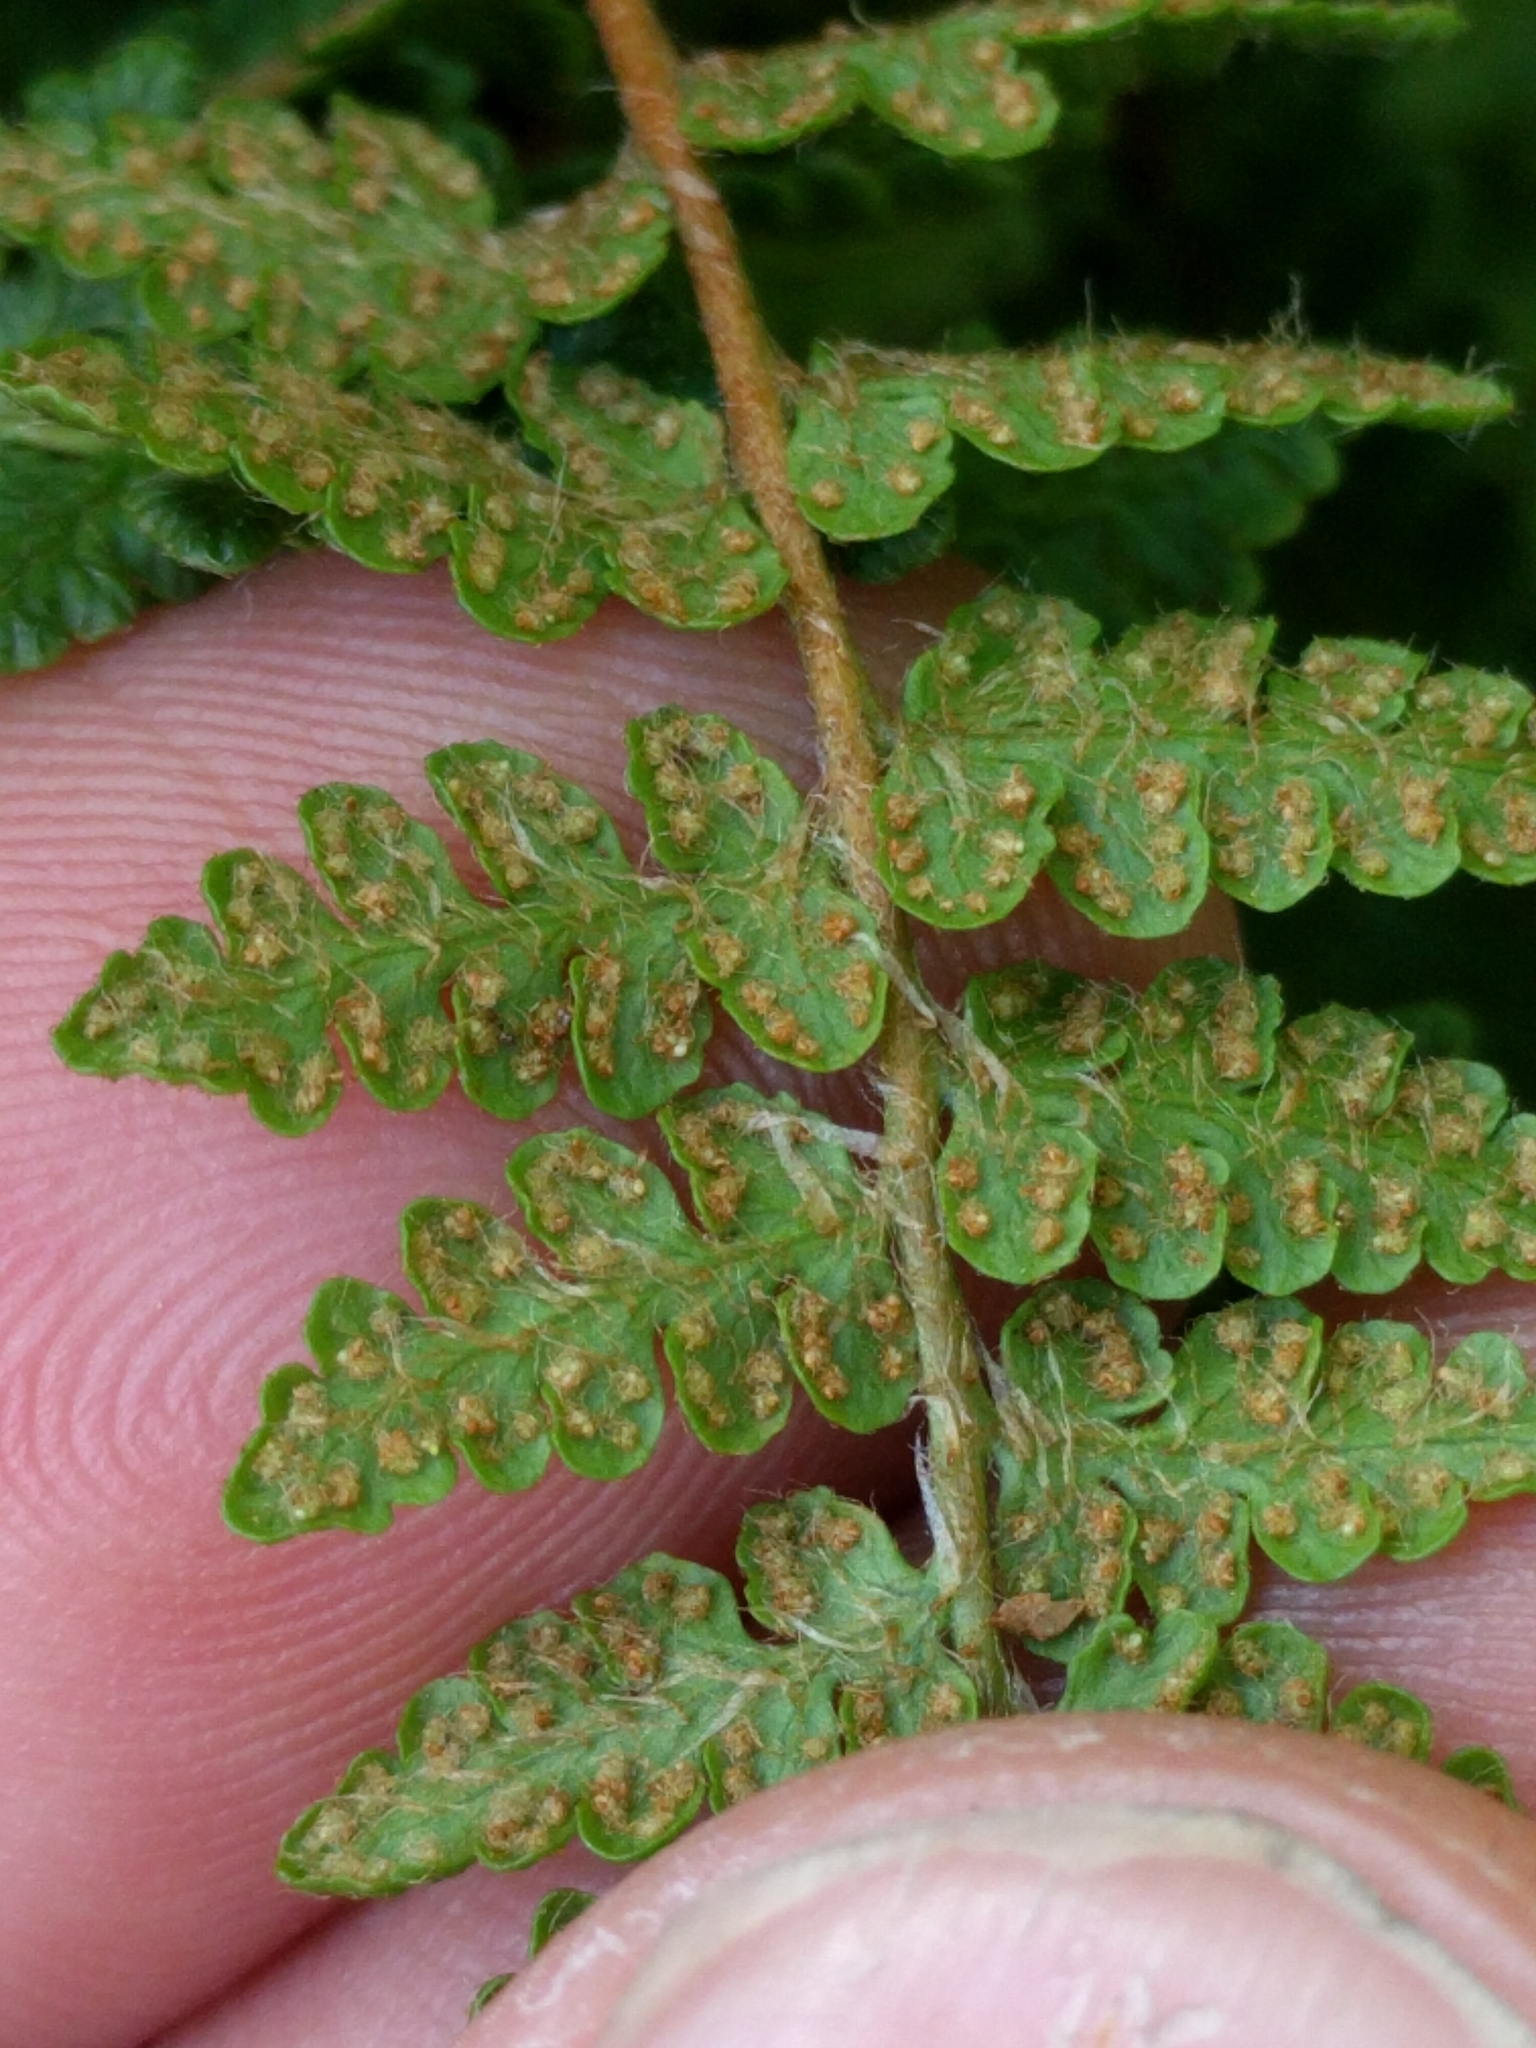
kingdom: Plantae
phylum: Tracheophyta
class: Polypodiopsida
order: Polypodiales
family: Woodsiaceae
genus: Woodsia
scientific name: Woodsia ilvensis
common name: Fragrant woodsia
